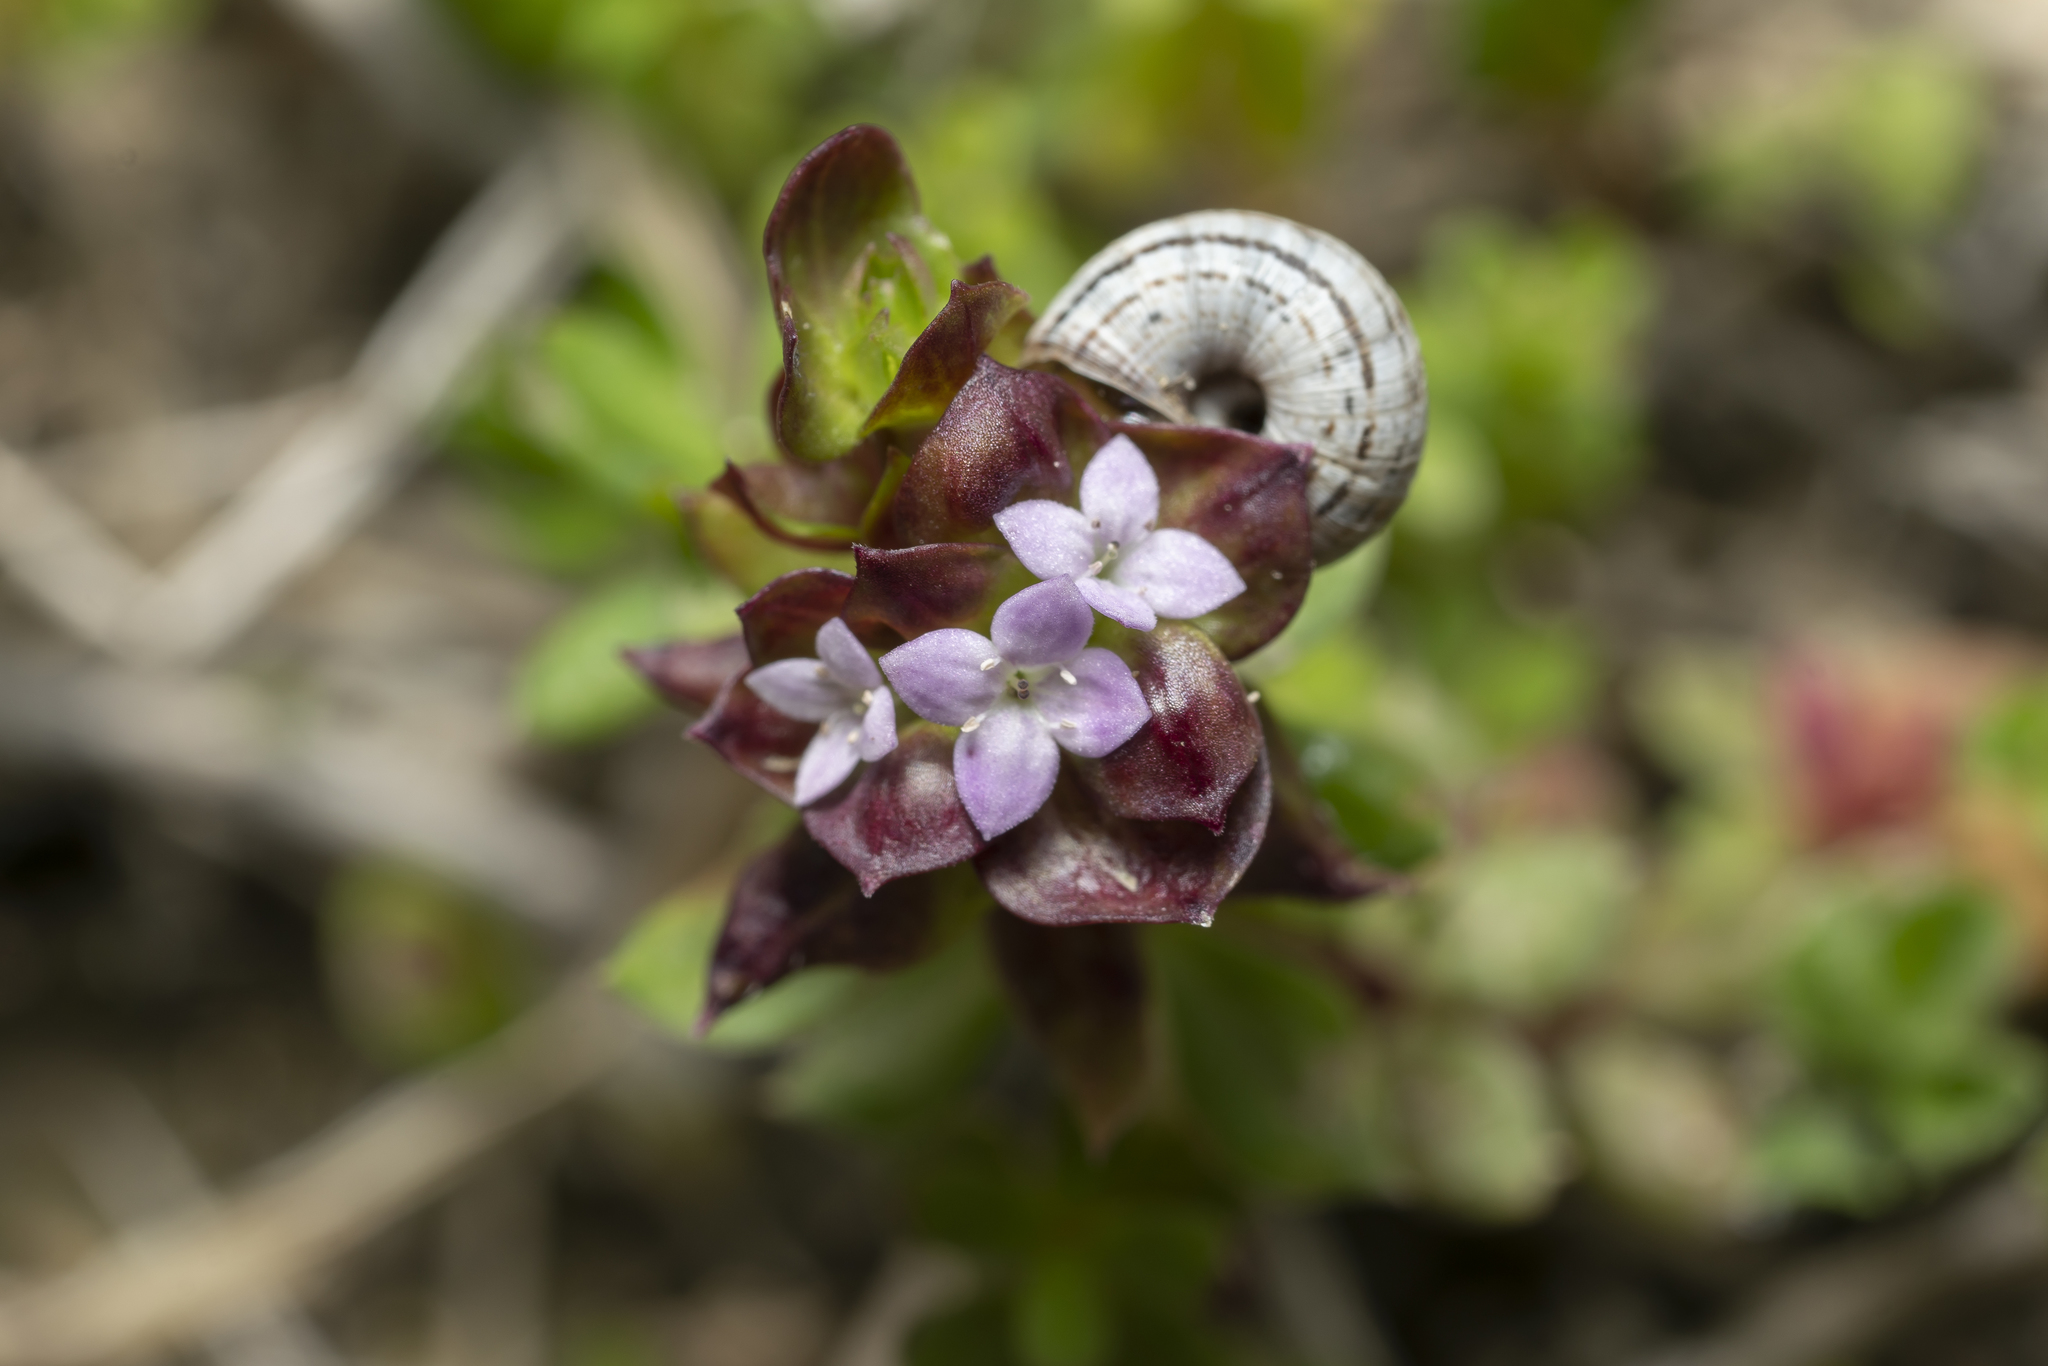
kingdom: Plantae
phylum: Tracheophyta
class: Magnoliopsida
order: Gentianales
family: Rubiaceae
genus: Sherardia
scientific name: Sherardia arvensis
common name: Field madder
